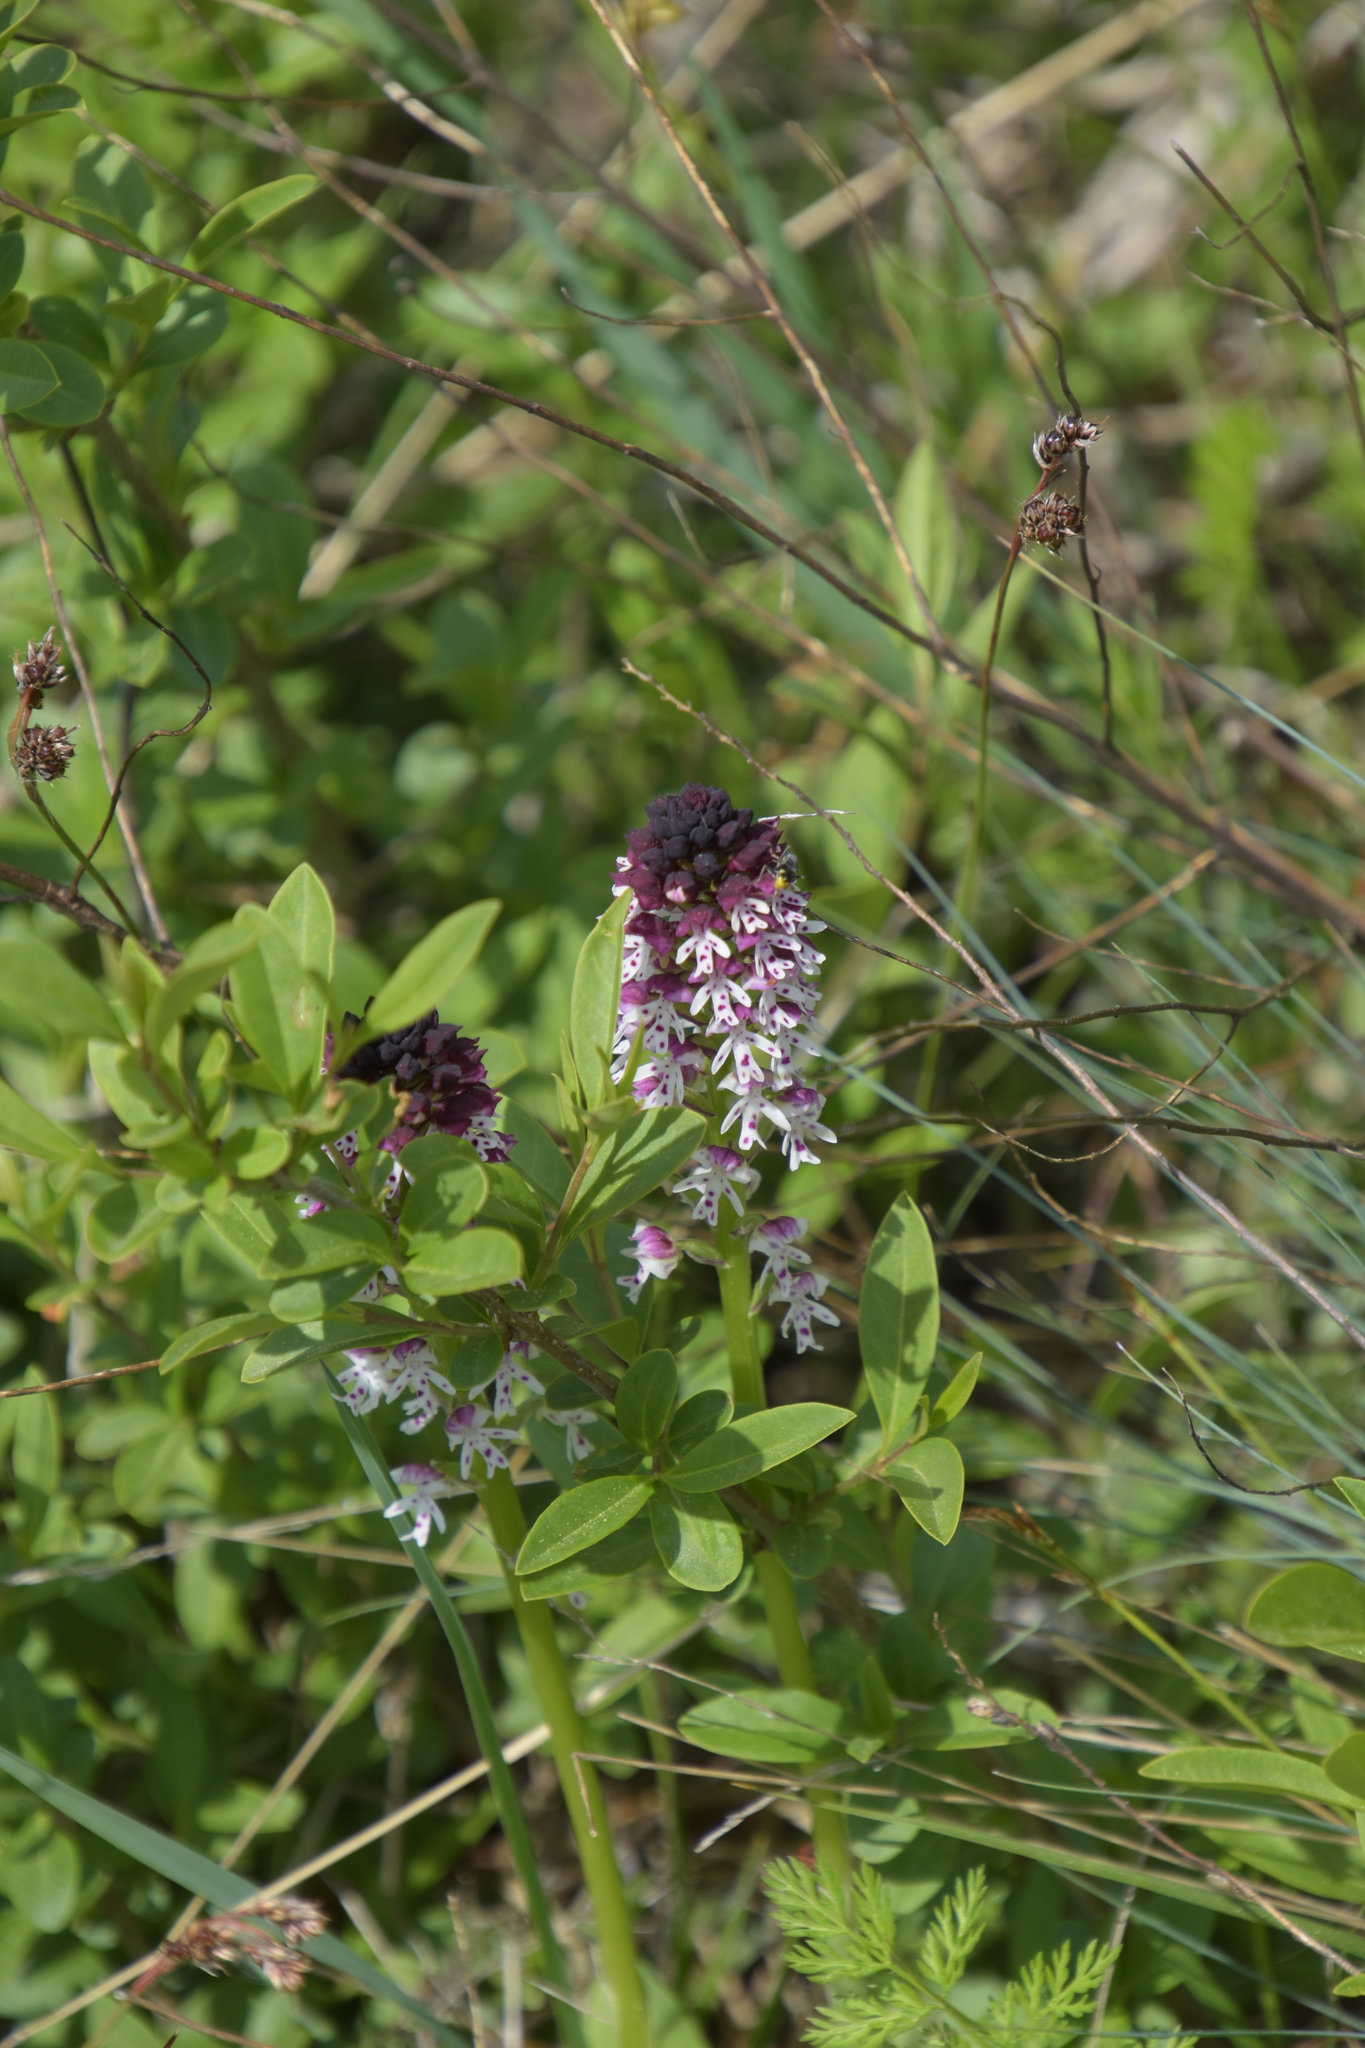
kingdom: Plantae
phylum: Tracheophyta
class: Liliopsida
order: Asparagales
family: Orchidaceae
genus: Neotinea
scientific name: Neotinea ustulata
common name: Burnt orchid
